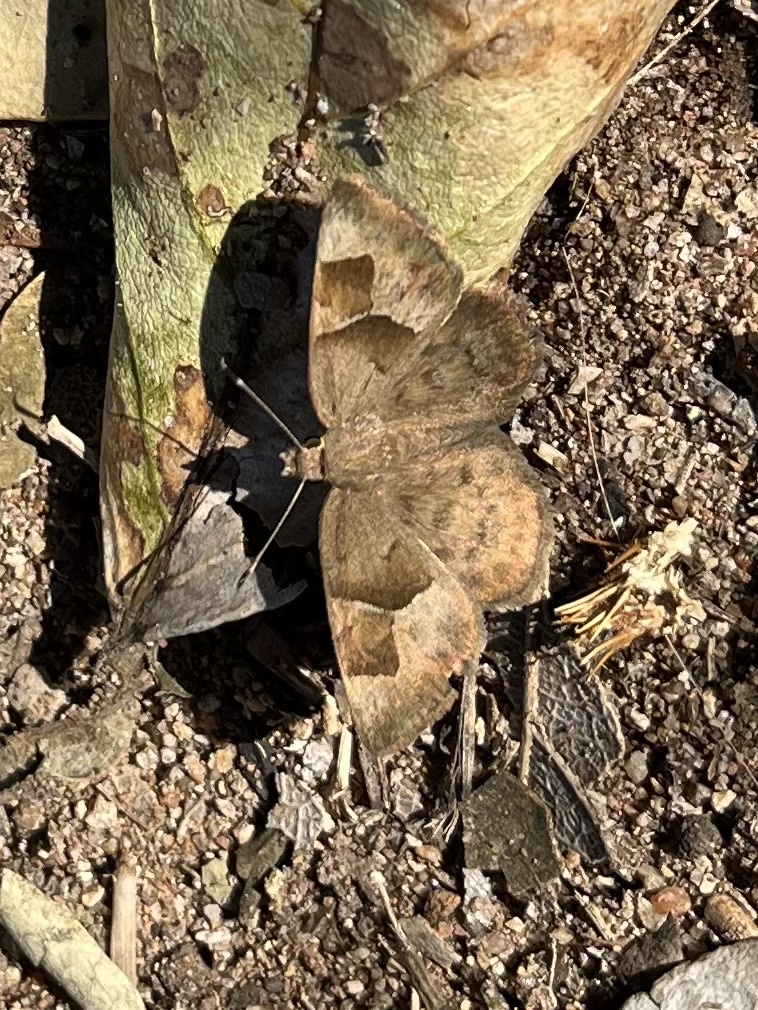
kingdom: Animalia
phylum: Arthropoda
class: Insecta
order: Lepidoptera
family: Hesperiidae
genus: Sarangesa
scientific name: Sarangesa phidyle
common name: Small elfin
